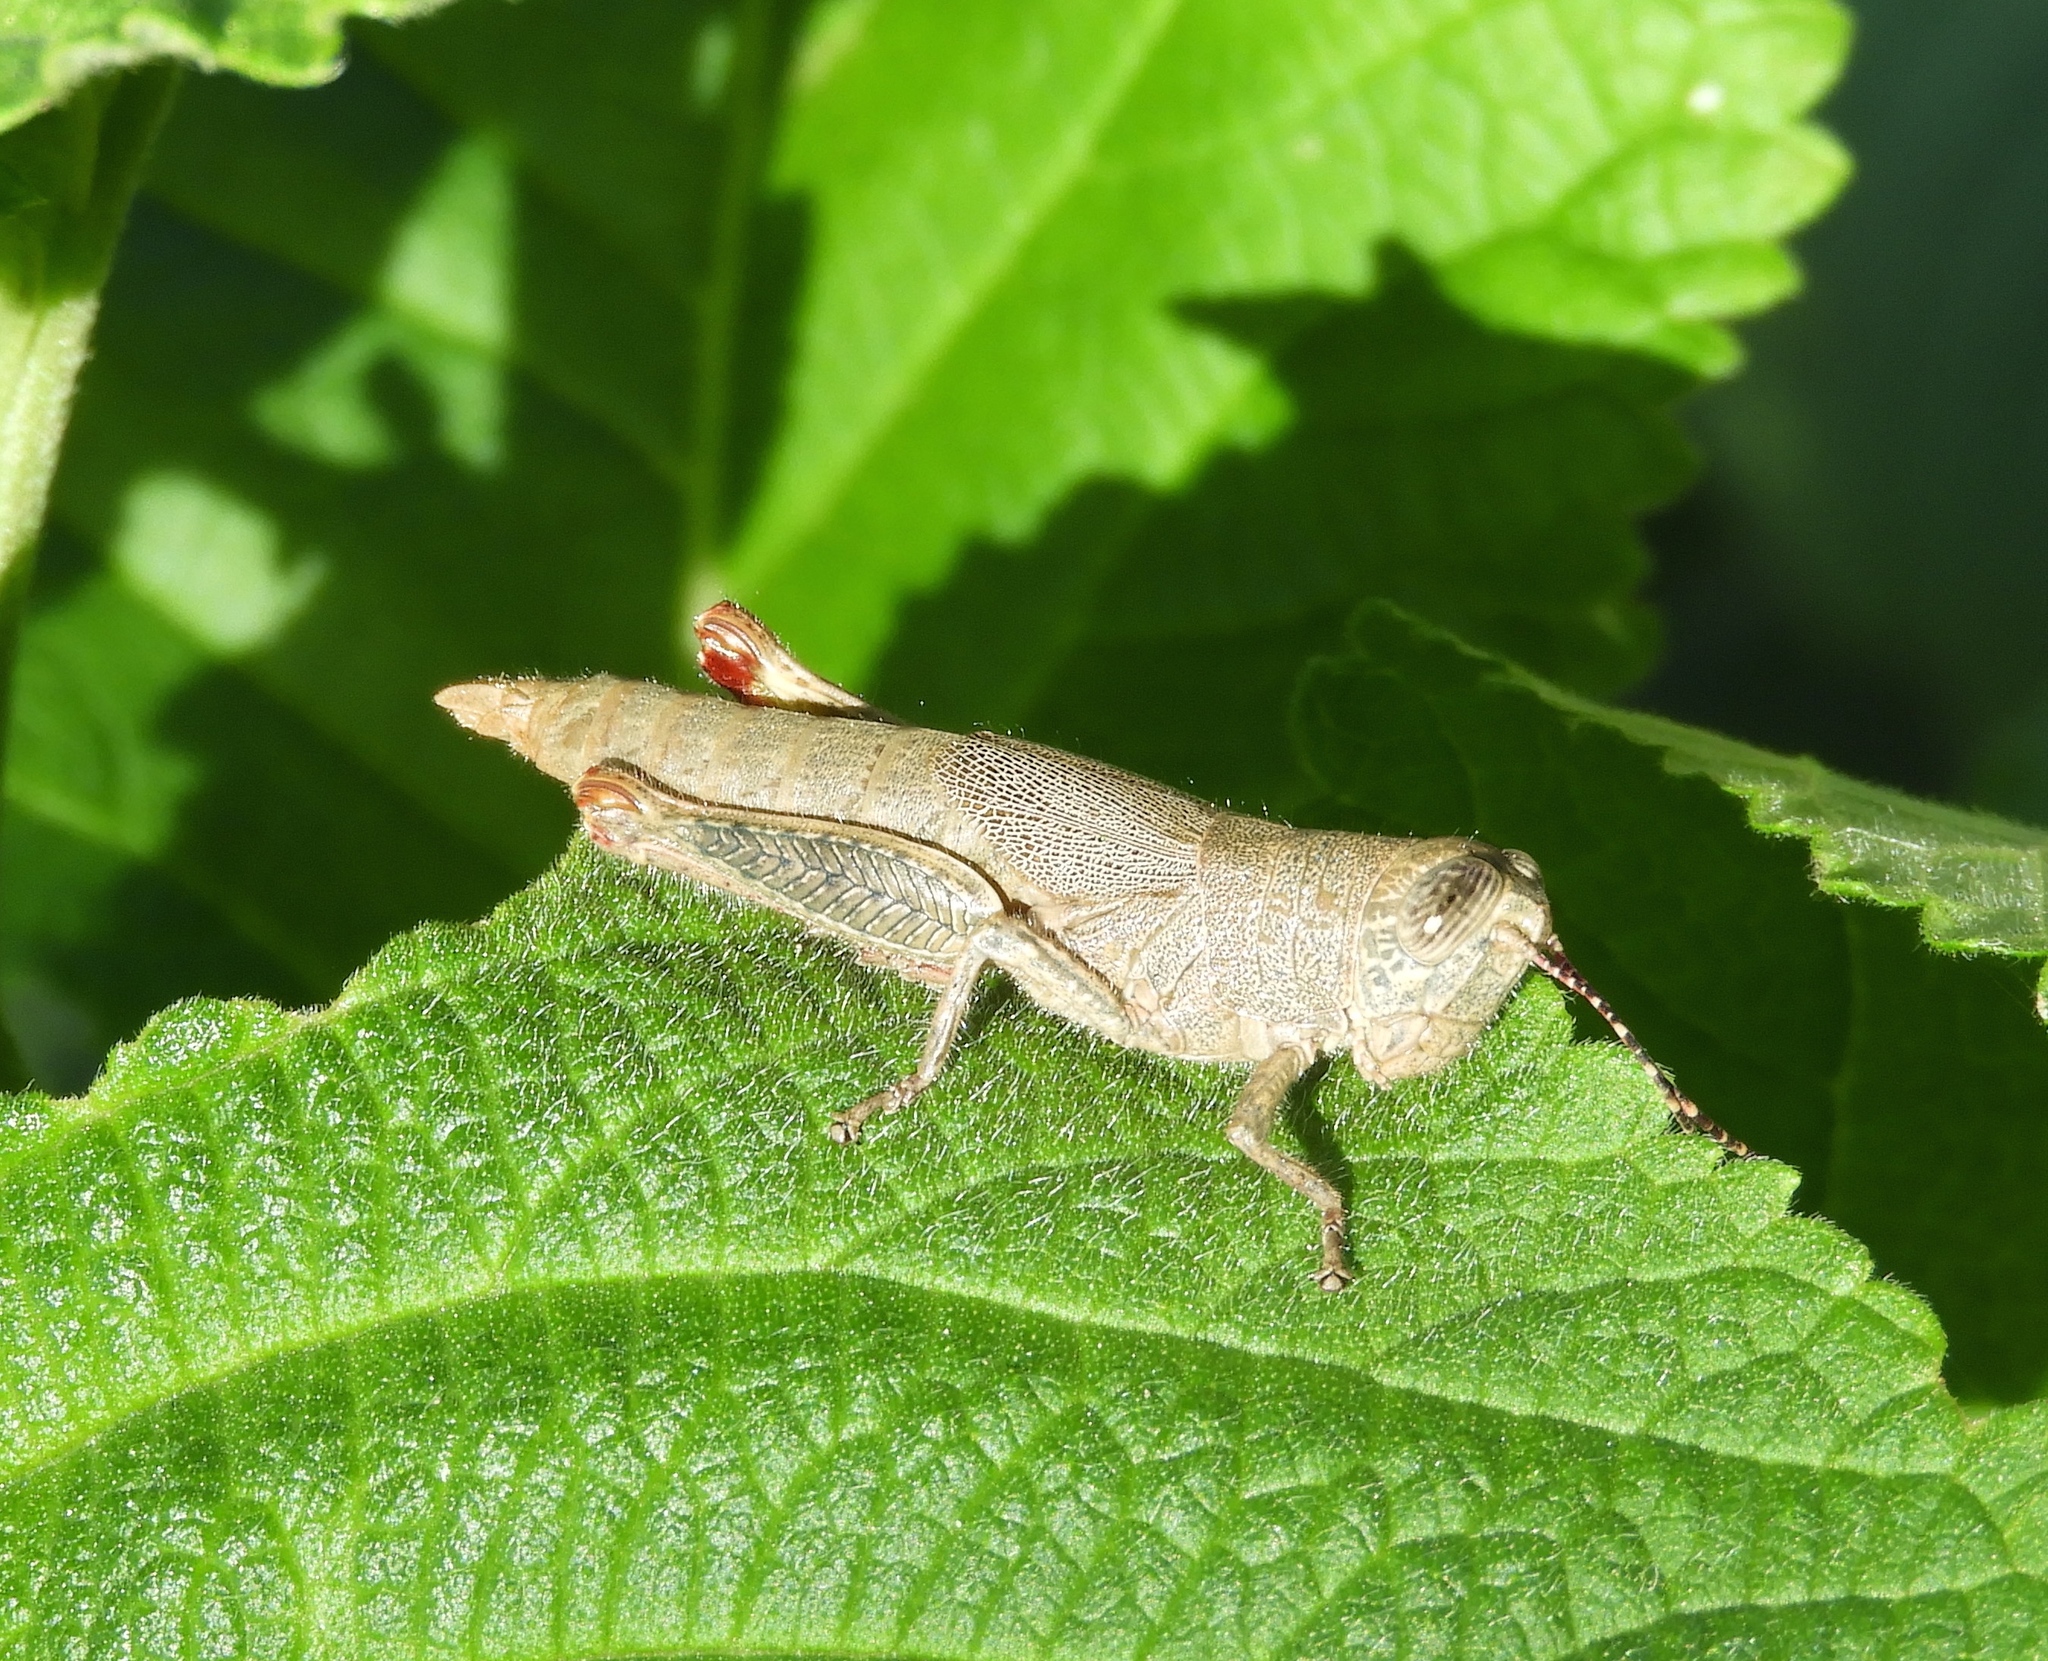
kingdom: Animalia
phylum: Arthropoda
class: Insecta
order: Orthoptera
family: Acrididae
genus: Proctolabus
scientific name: Proctolabus cerciatus
